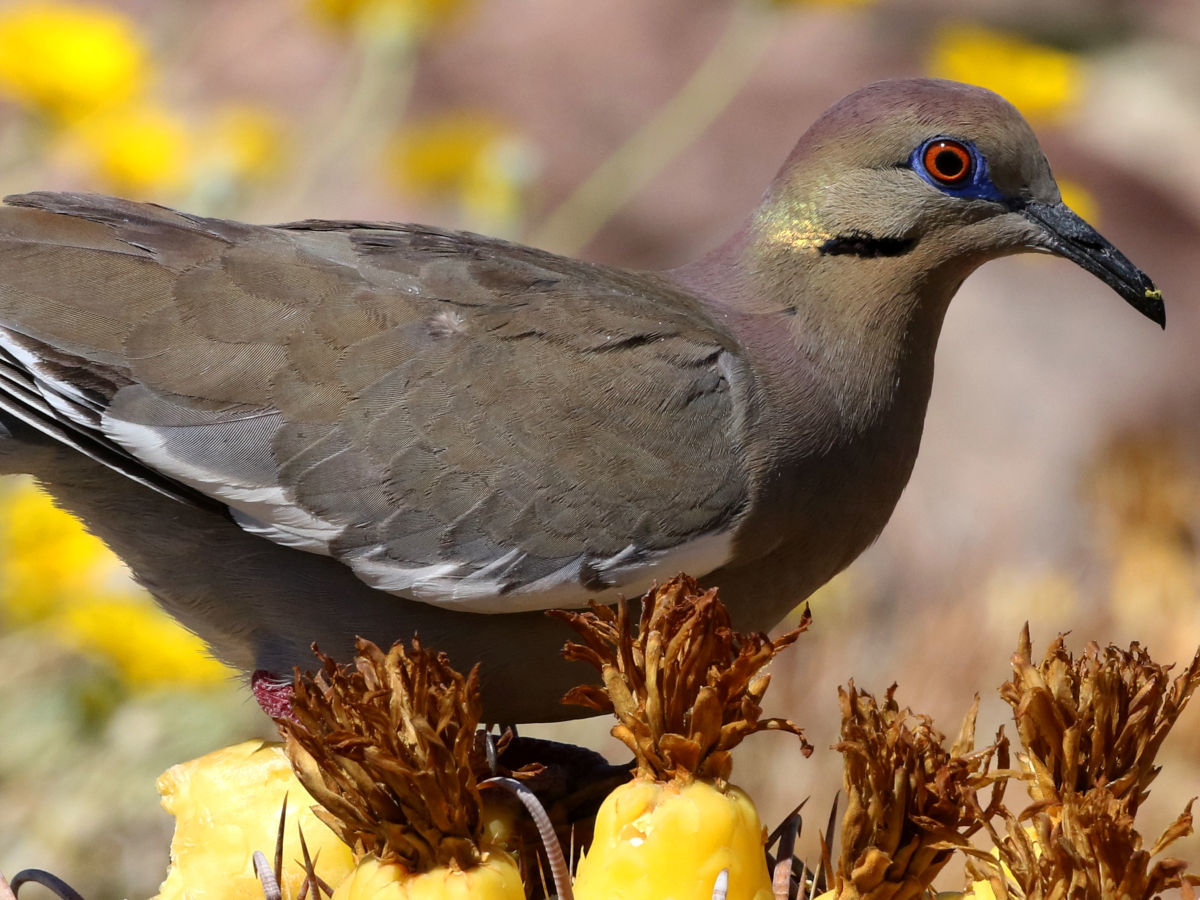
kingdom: Animalia
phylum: Chordata
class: Aves
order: Columbiformes
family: Columbidae
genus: Zenaida
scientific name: Zenaida asiatica
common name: White-winged dove
